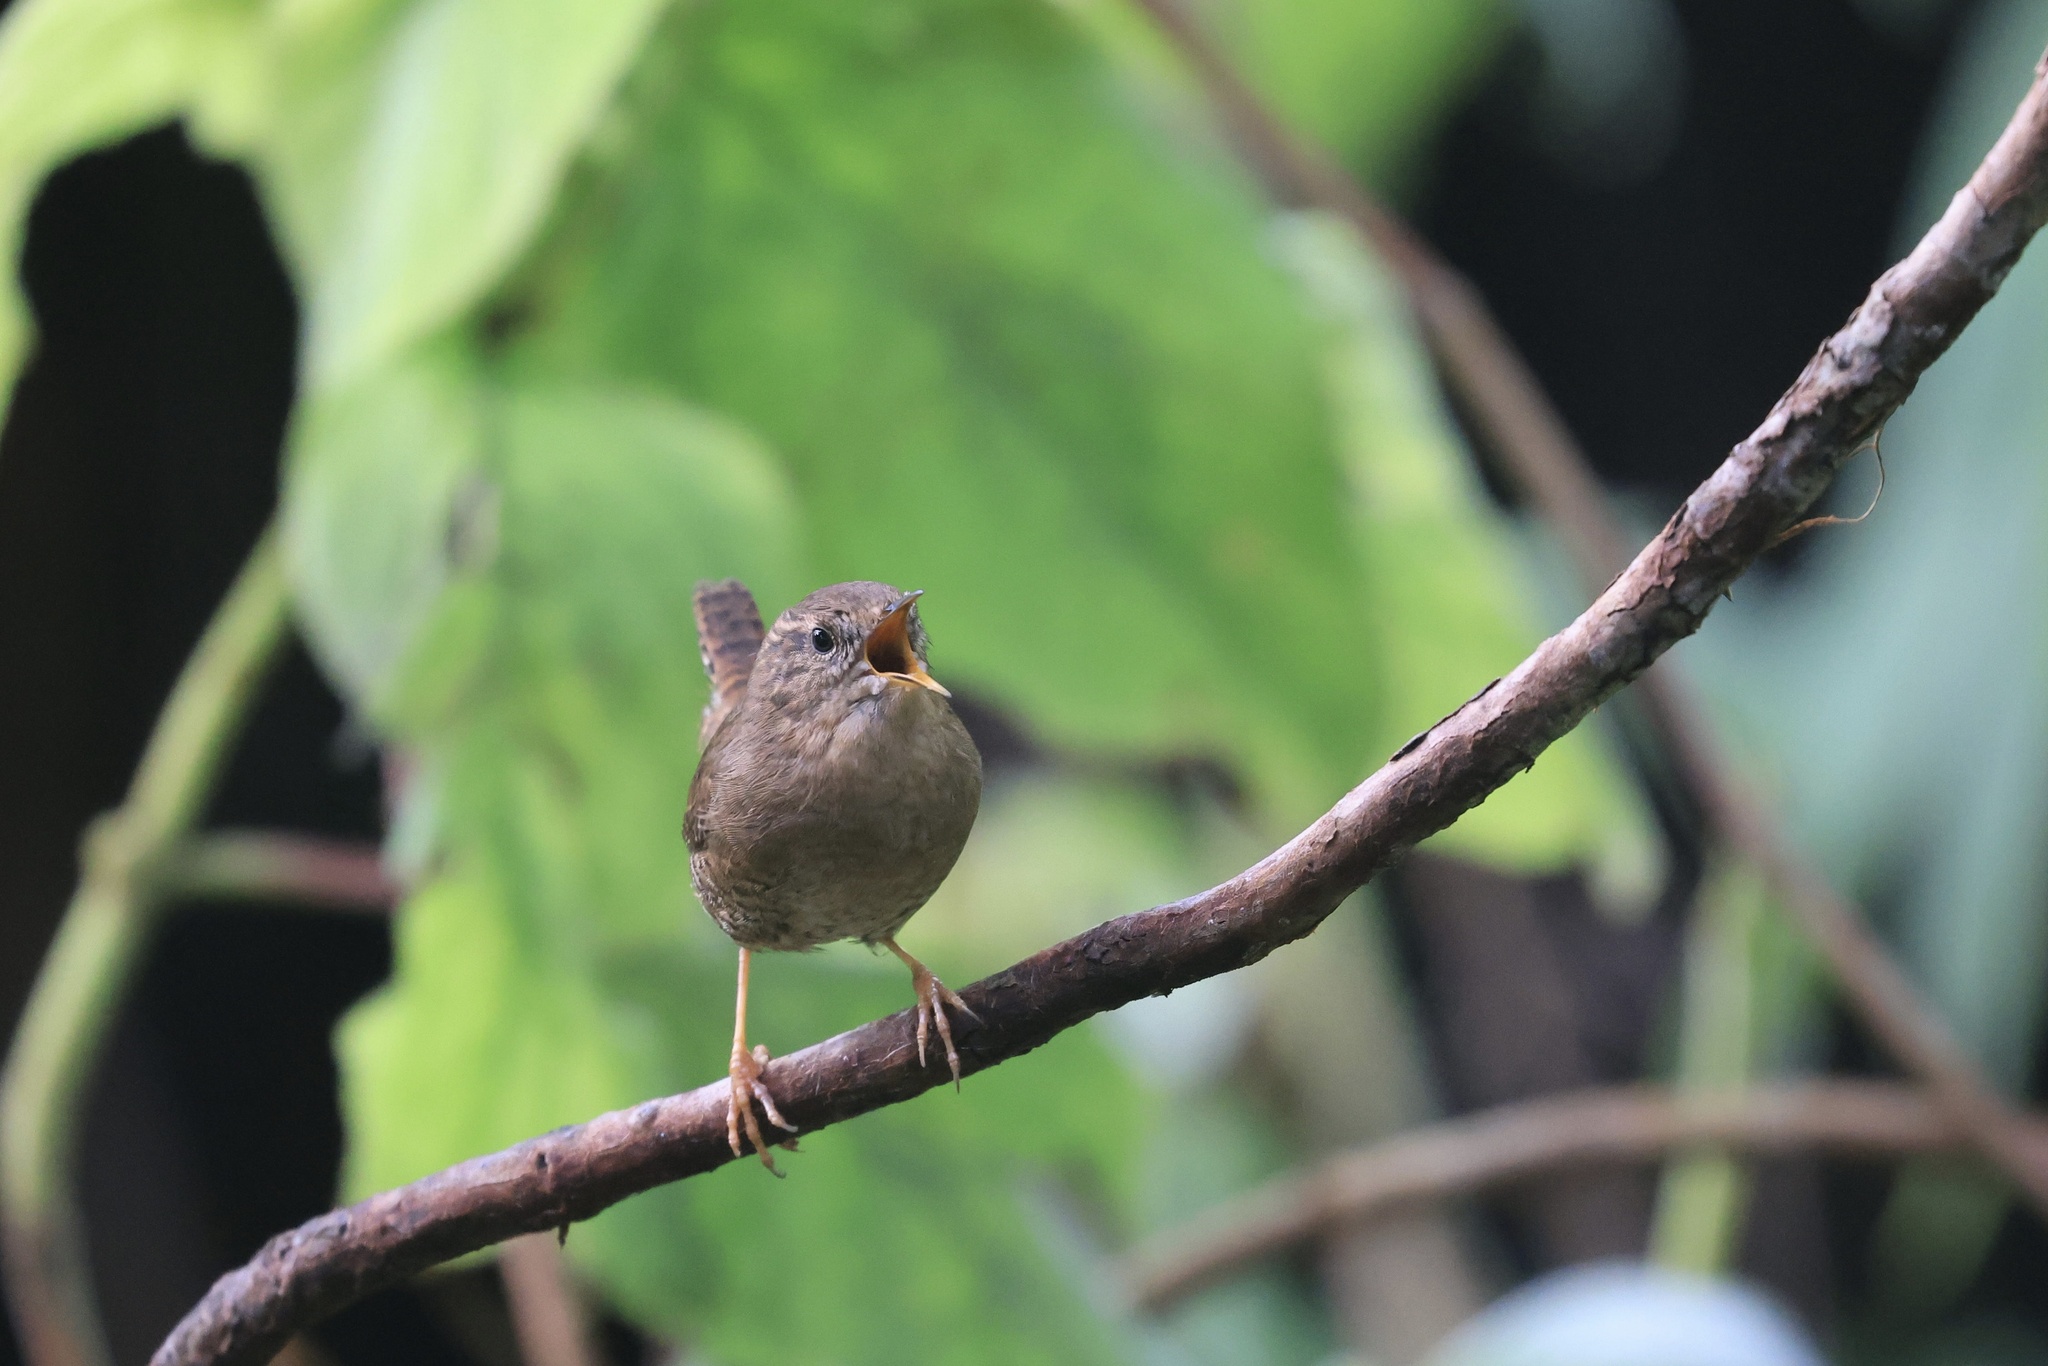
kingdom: Animalia
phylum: Chordata
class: Aves
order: Passeriformes
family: Troglodytidae
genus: Troglodytes
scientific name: Troglodytes pacificus
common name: Pacific wren
